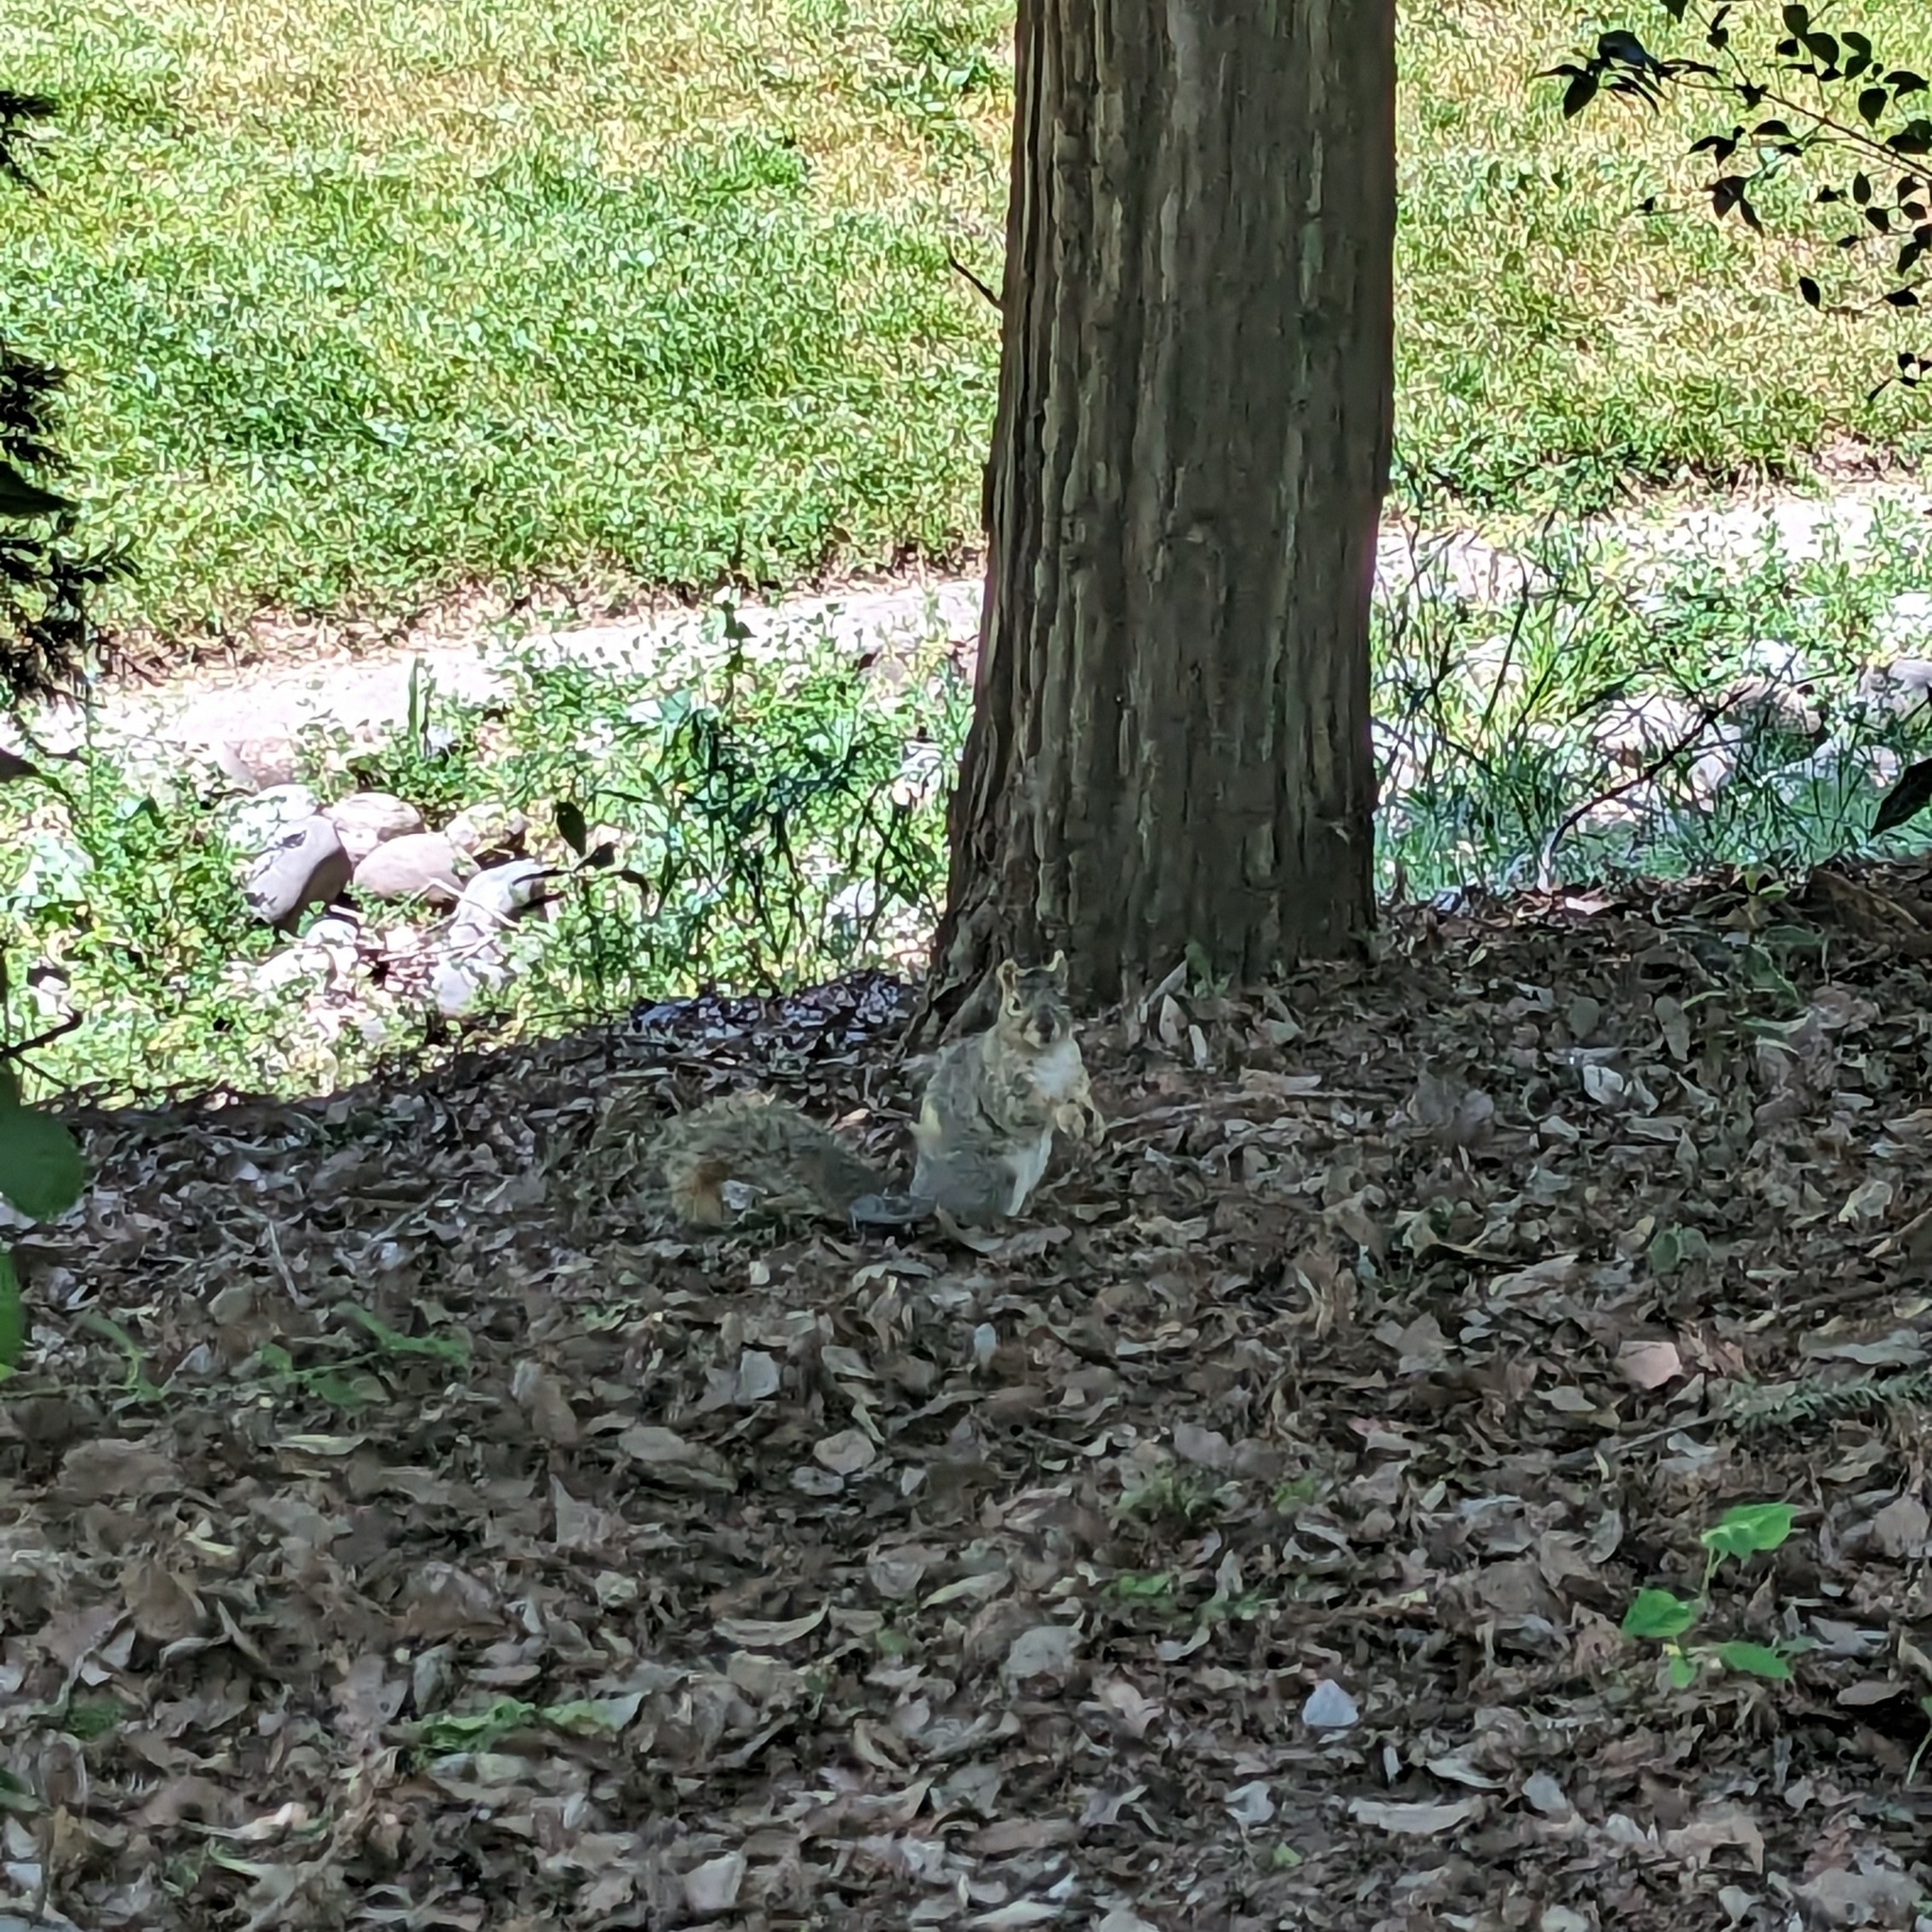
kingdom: Animalia
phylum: Chordata
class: Mammalia
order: Rodentia
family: Sciuridae
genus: Sciurus
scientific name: Sciurus niger
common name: Fox squirrel
